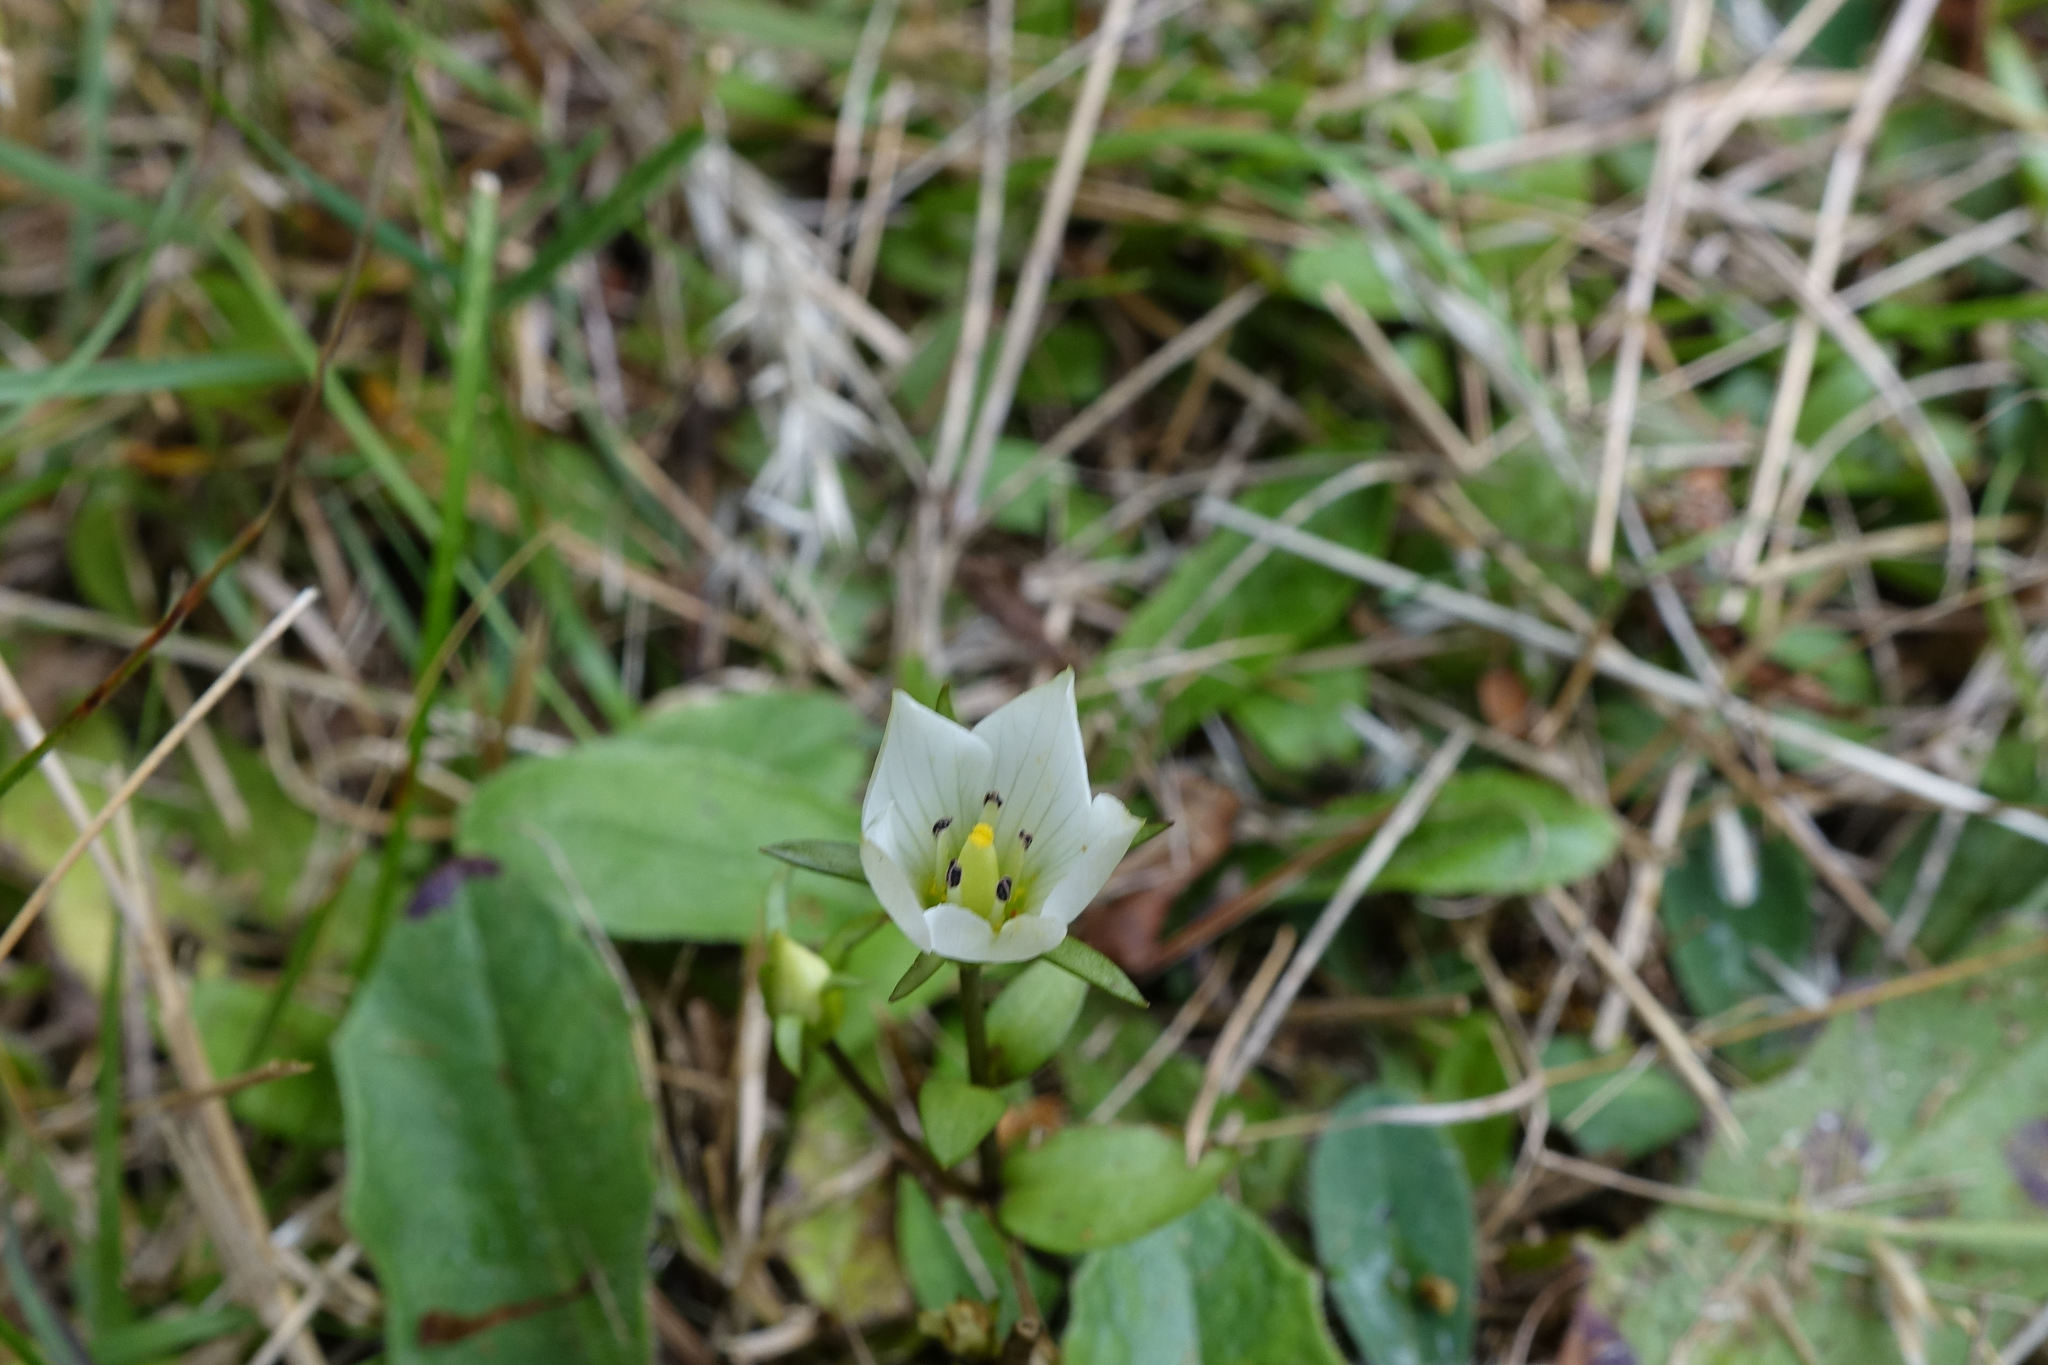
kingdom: Plantae
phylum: Tracheophyta
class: Magnoliopsida
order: Gentianales
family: Gentianaceae
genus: Gentianella
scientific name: Gentianella grisebachii
